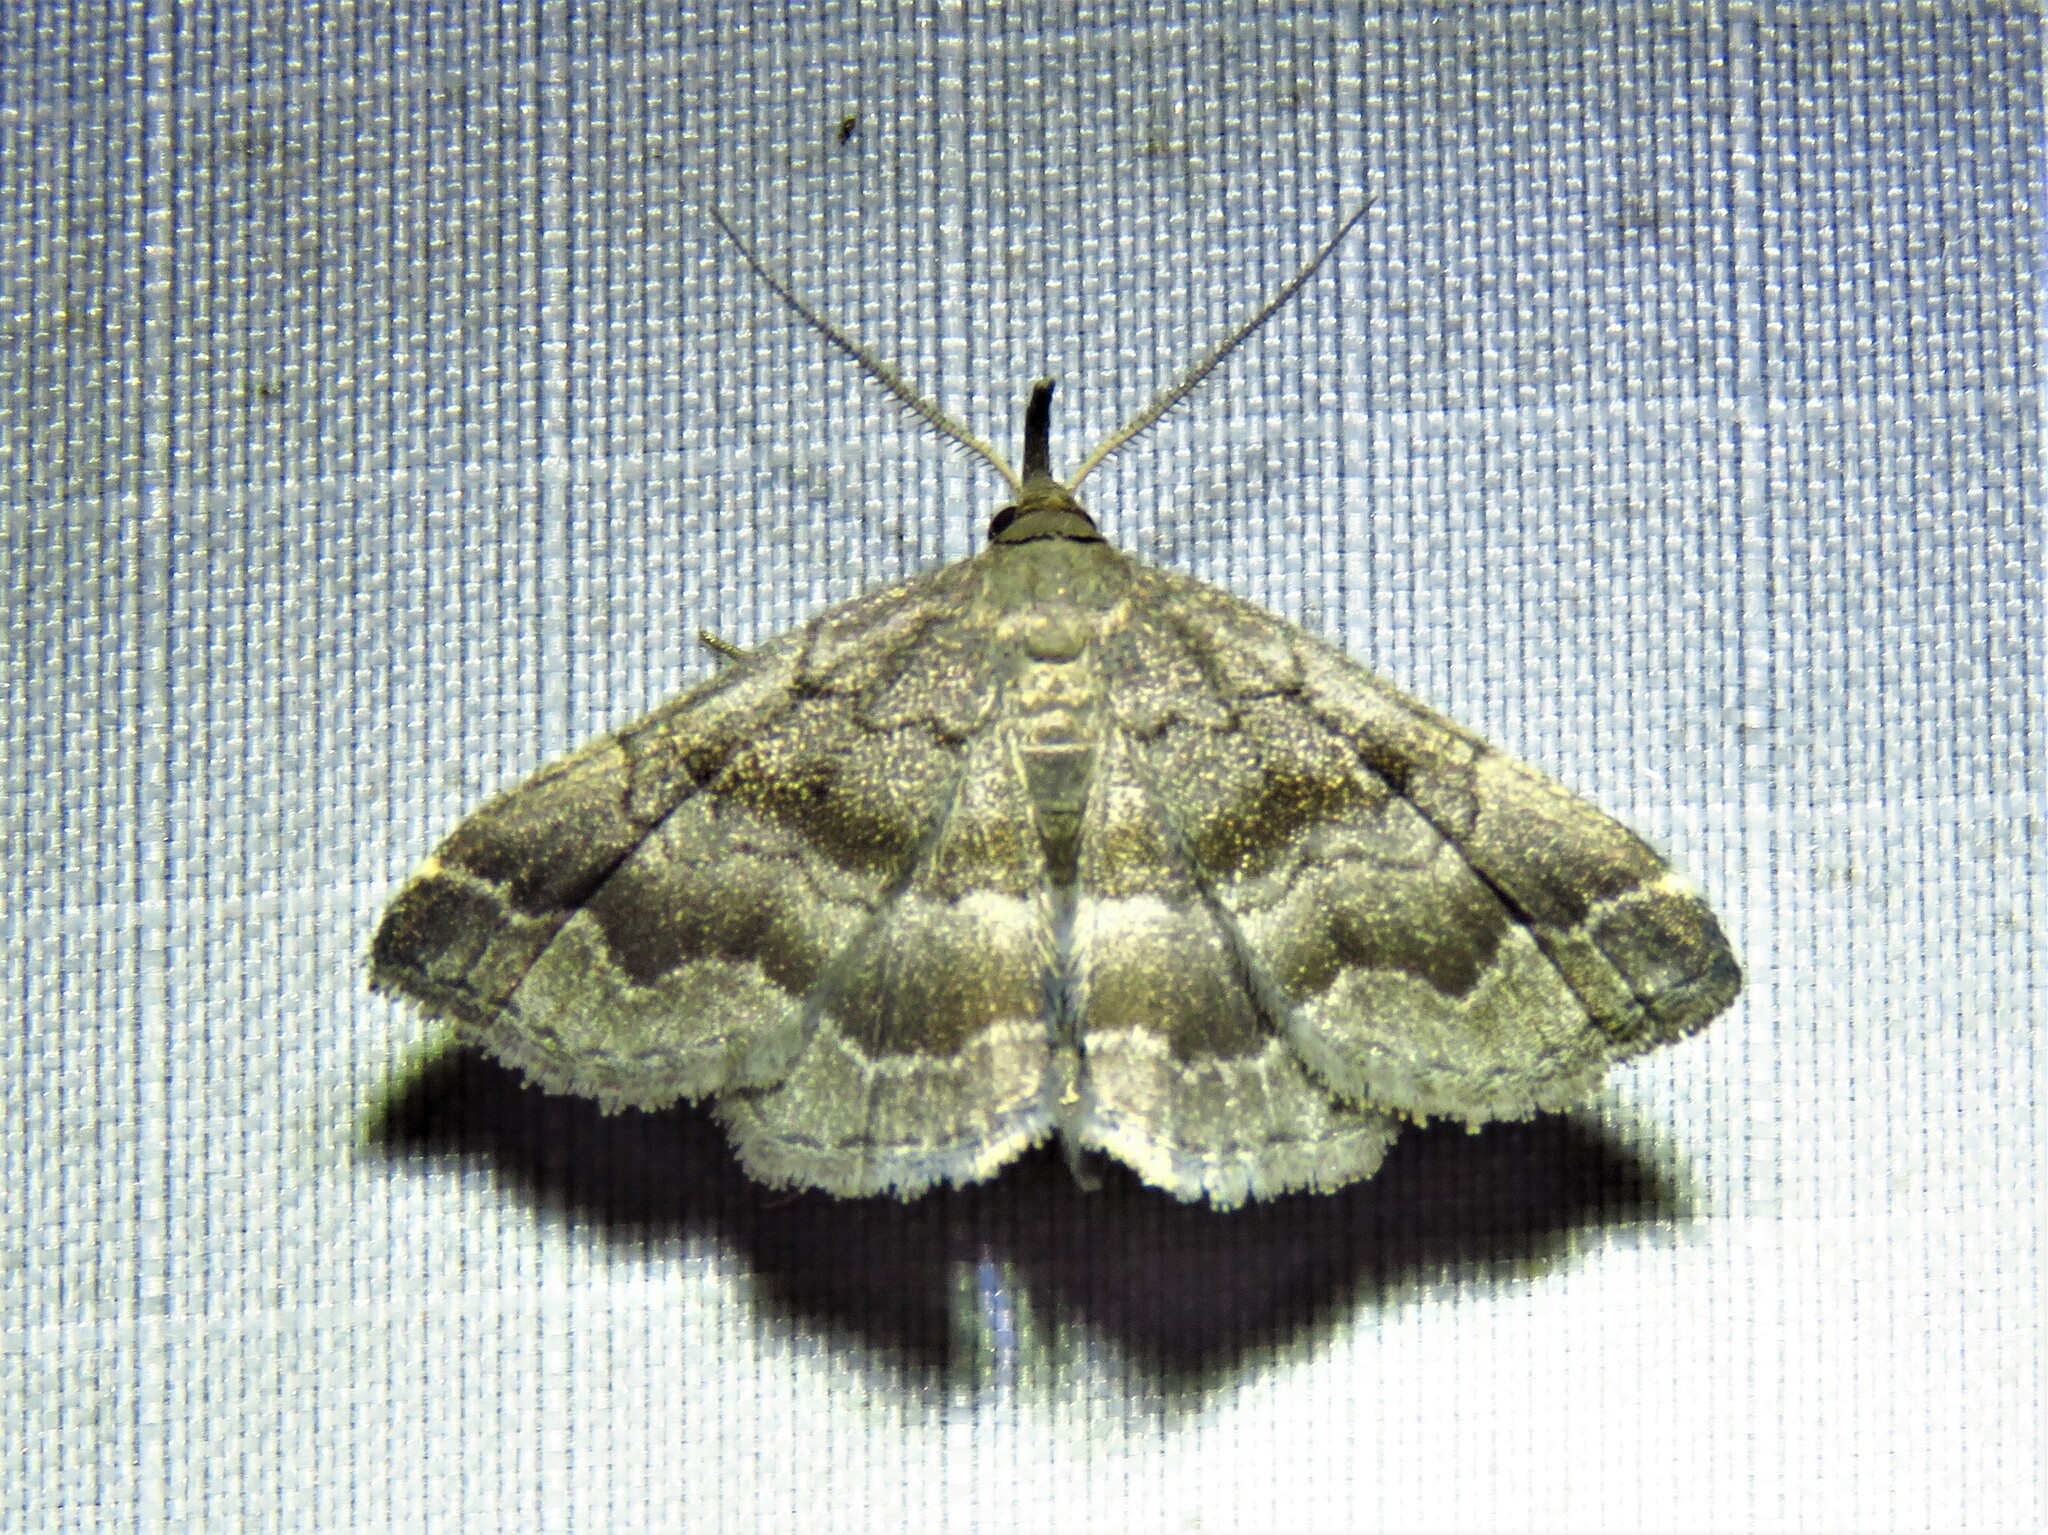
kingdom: Animalia
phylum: Arthropoda
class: Insecta
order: Lepidoptera
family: Erebidae
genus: Phalaenostola
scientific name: Phalaenostola larentioides
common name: Black-banded owlet
